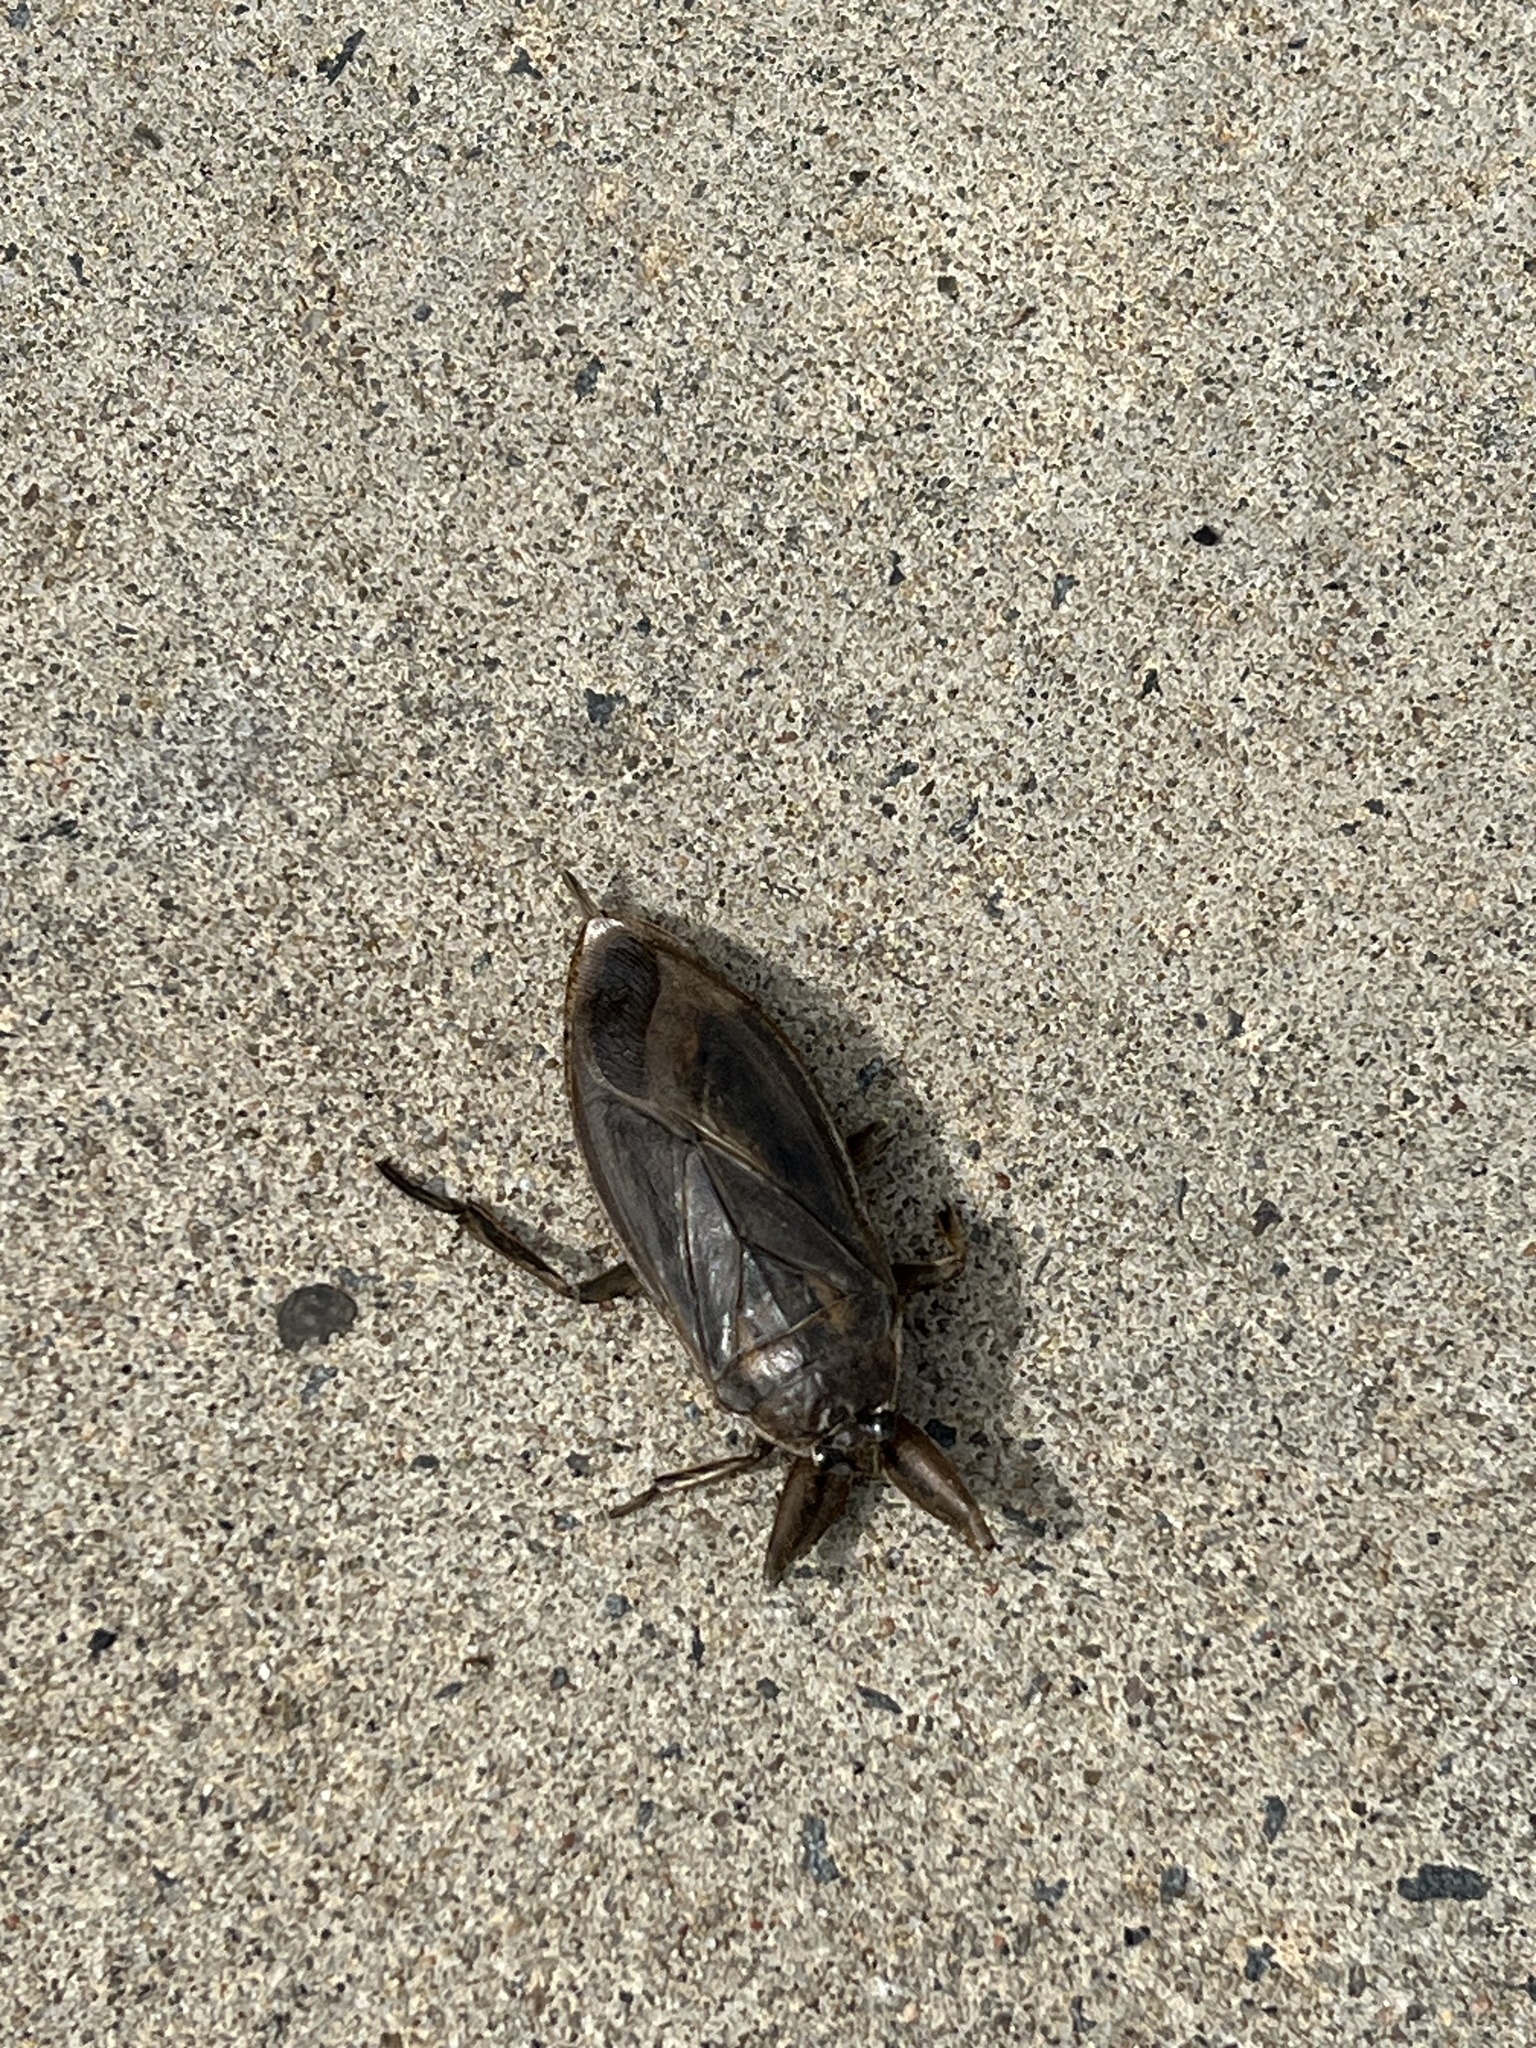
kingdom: Animalia
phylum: Arthropoda
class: Insecta
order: Hemiptera
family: Belostomatidae
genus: Lethocerus
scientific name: Lethocerus americanus
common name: Giant water bug
